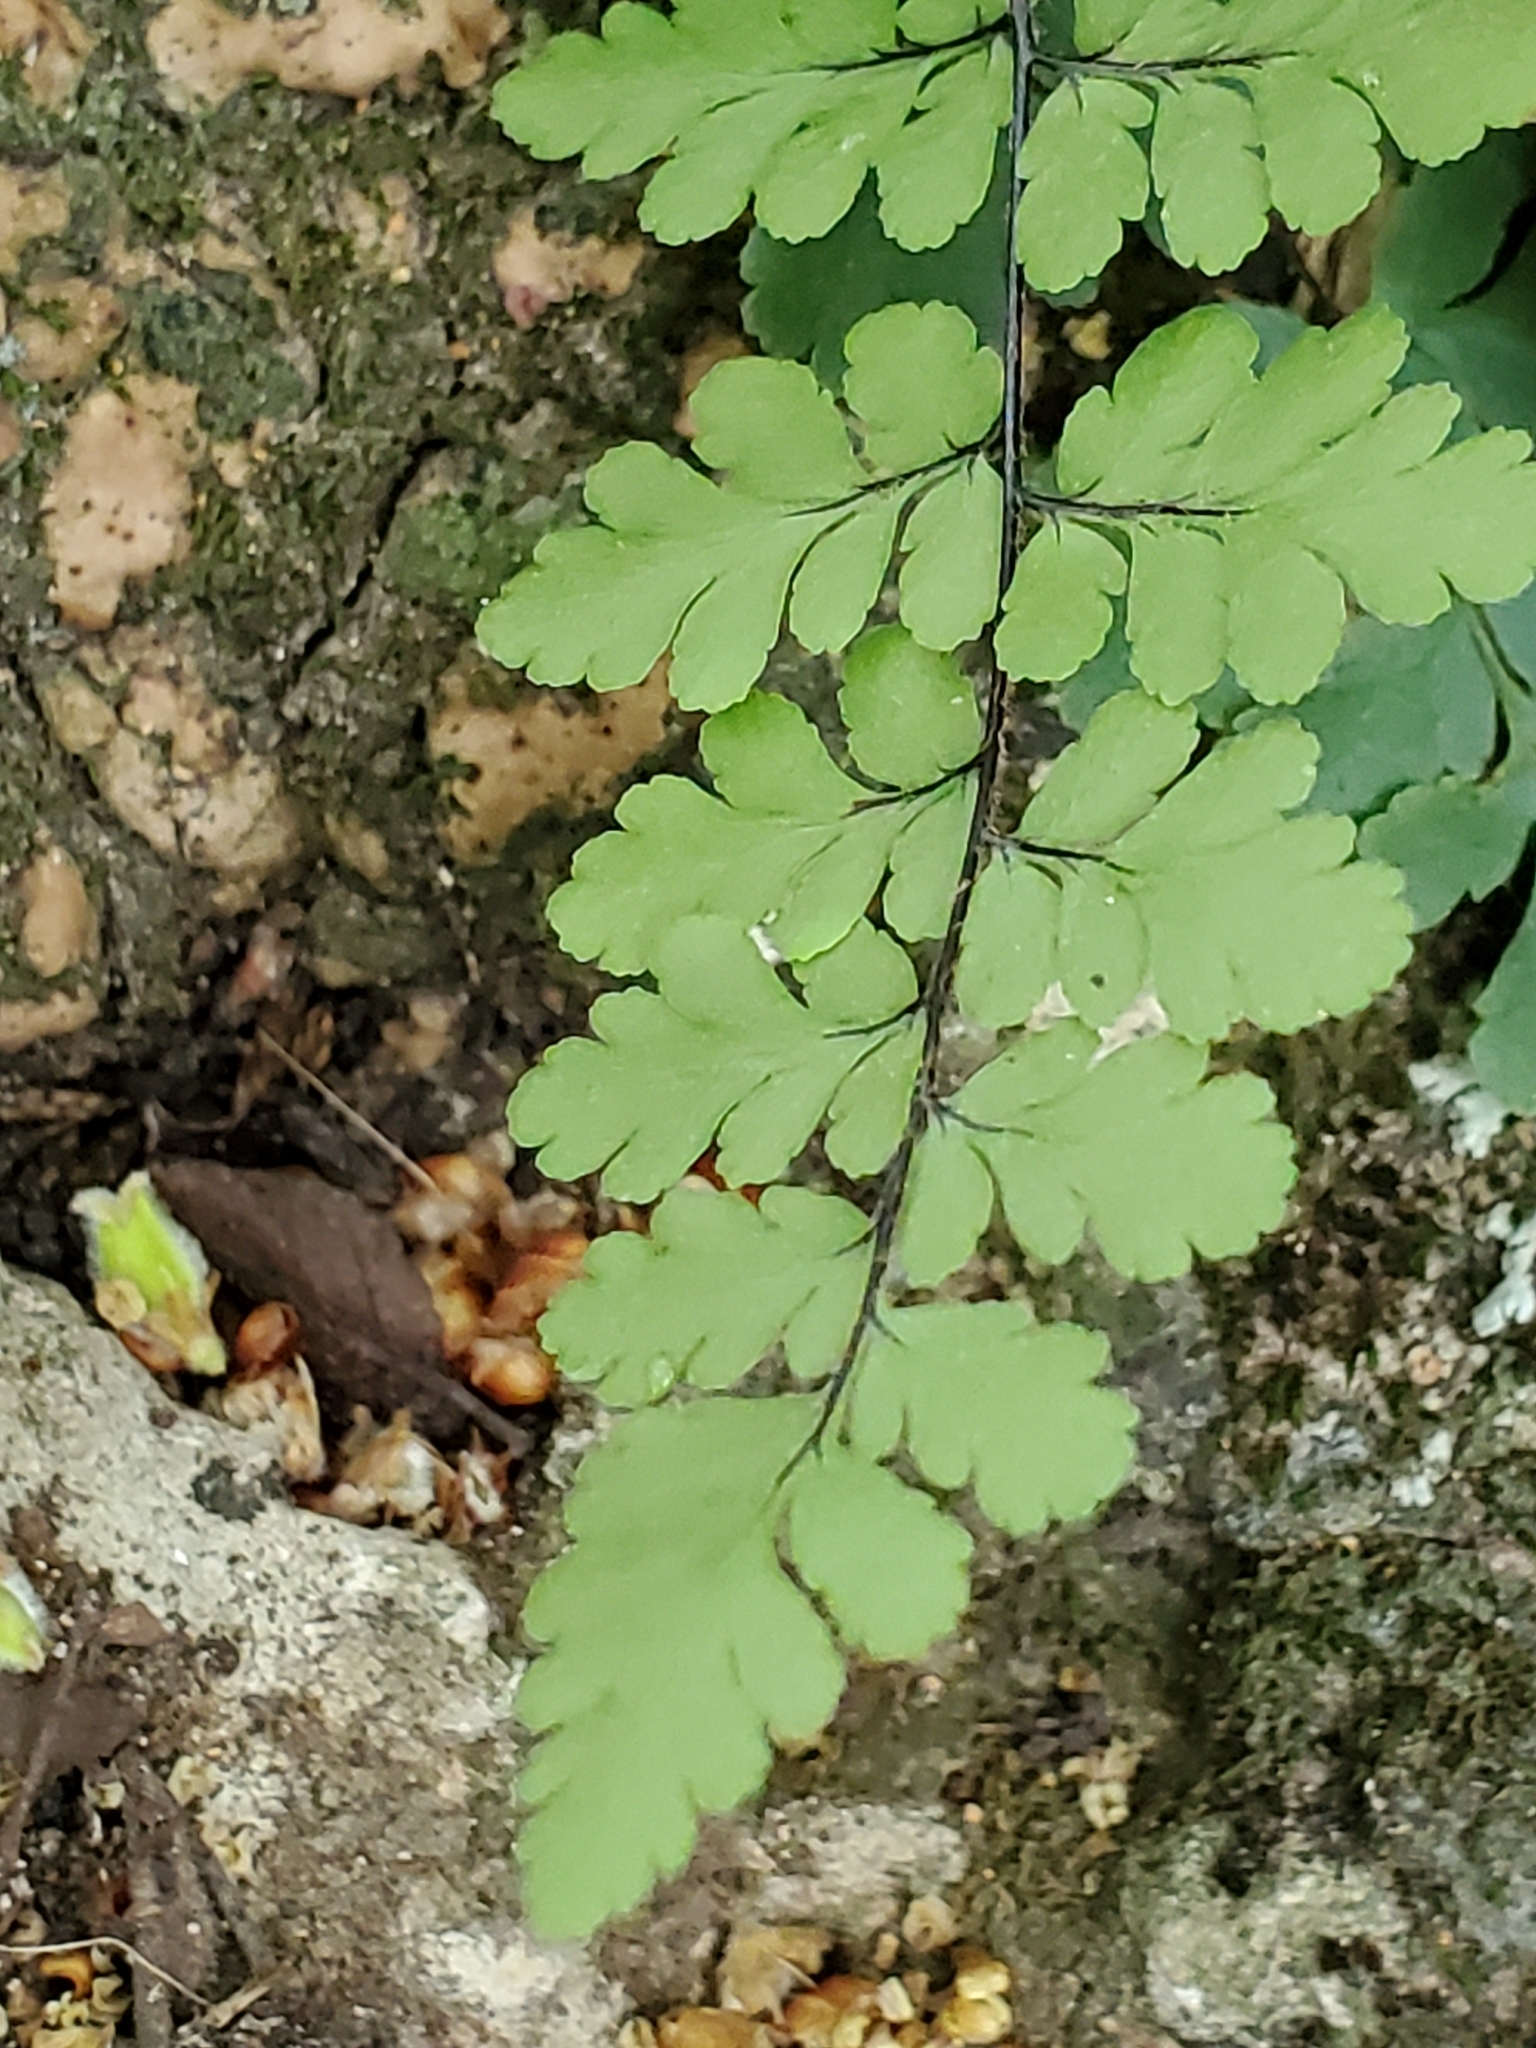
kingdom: Plantae
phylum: Tracheophyta
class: Polypodiopsida
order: Polypodiales
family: Pteridaceae
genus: Myriopteris
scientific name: Myriopteris alabamensis
